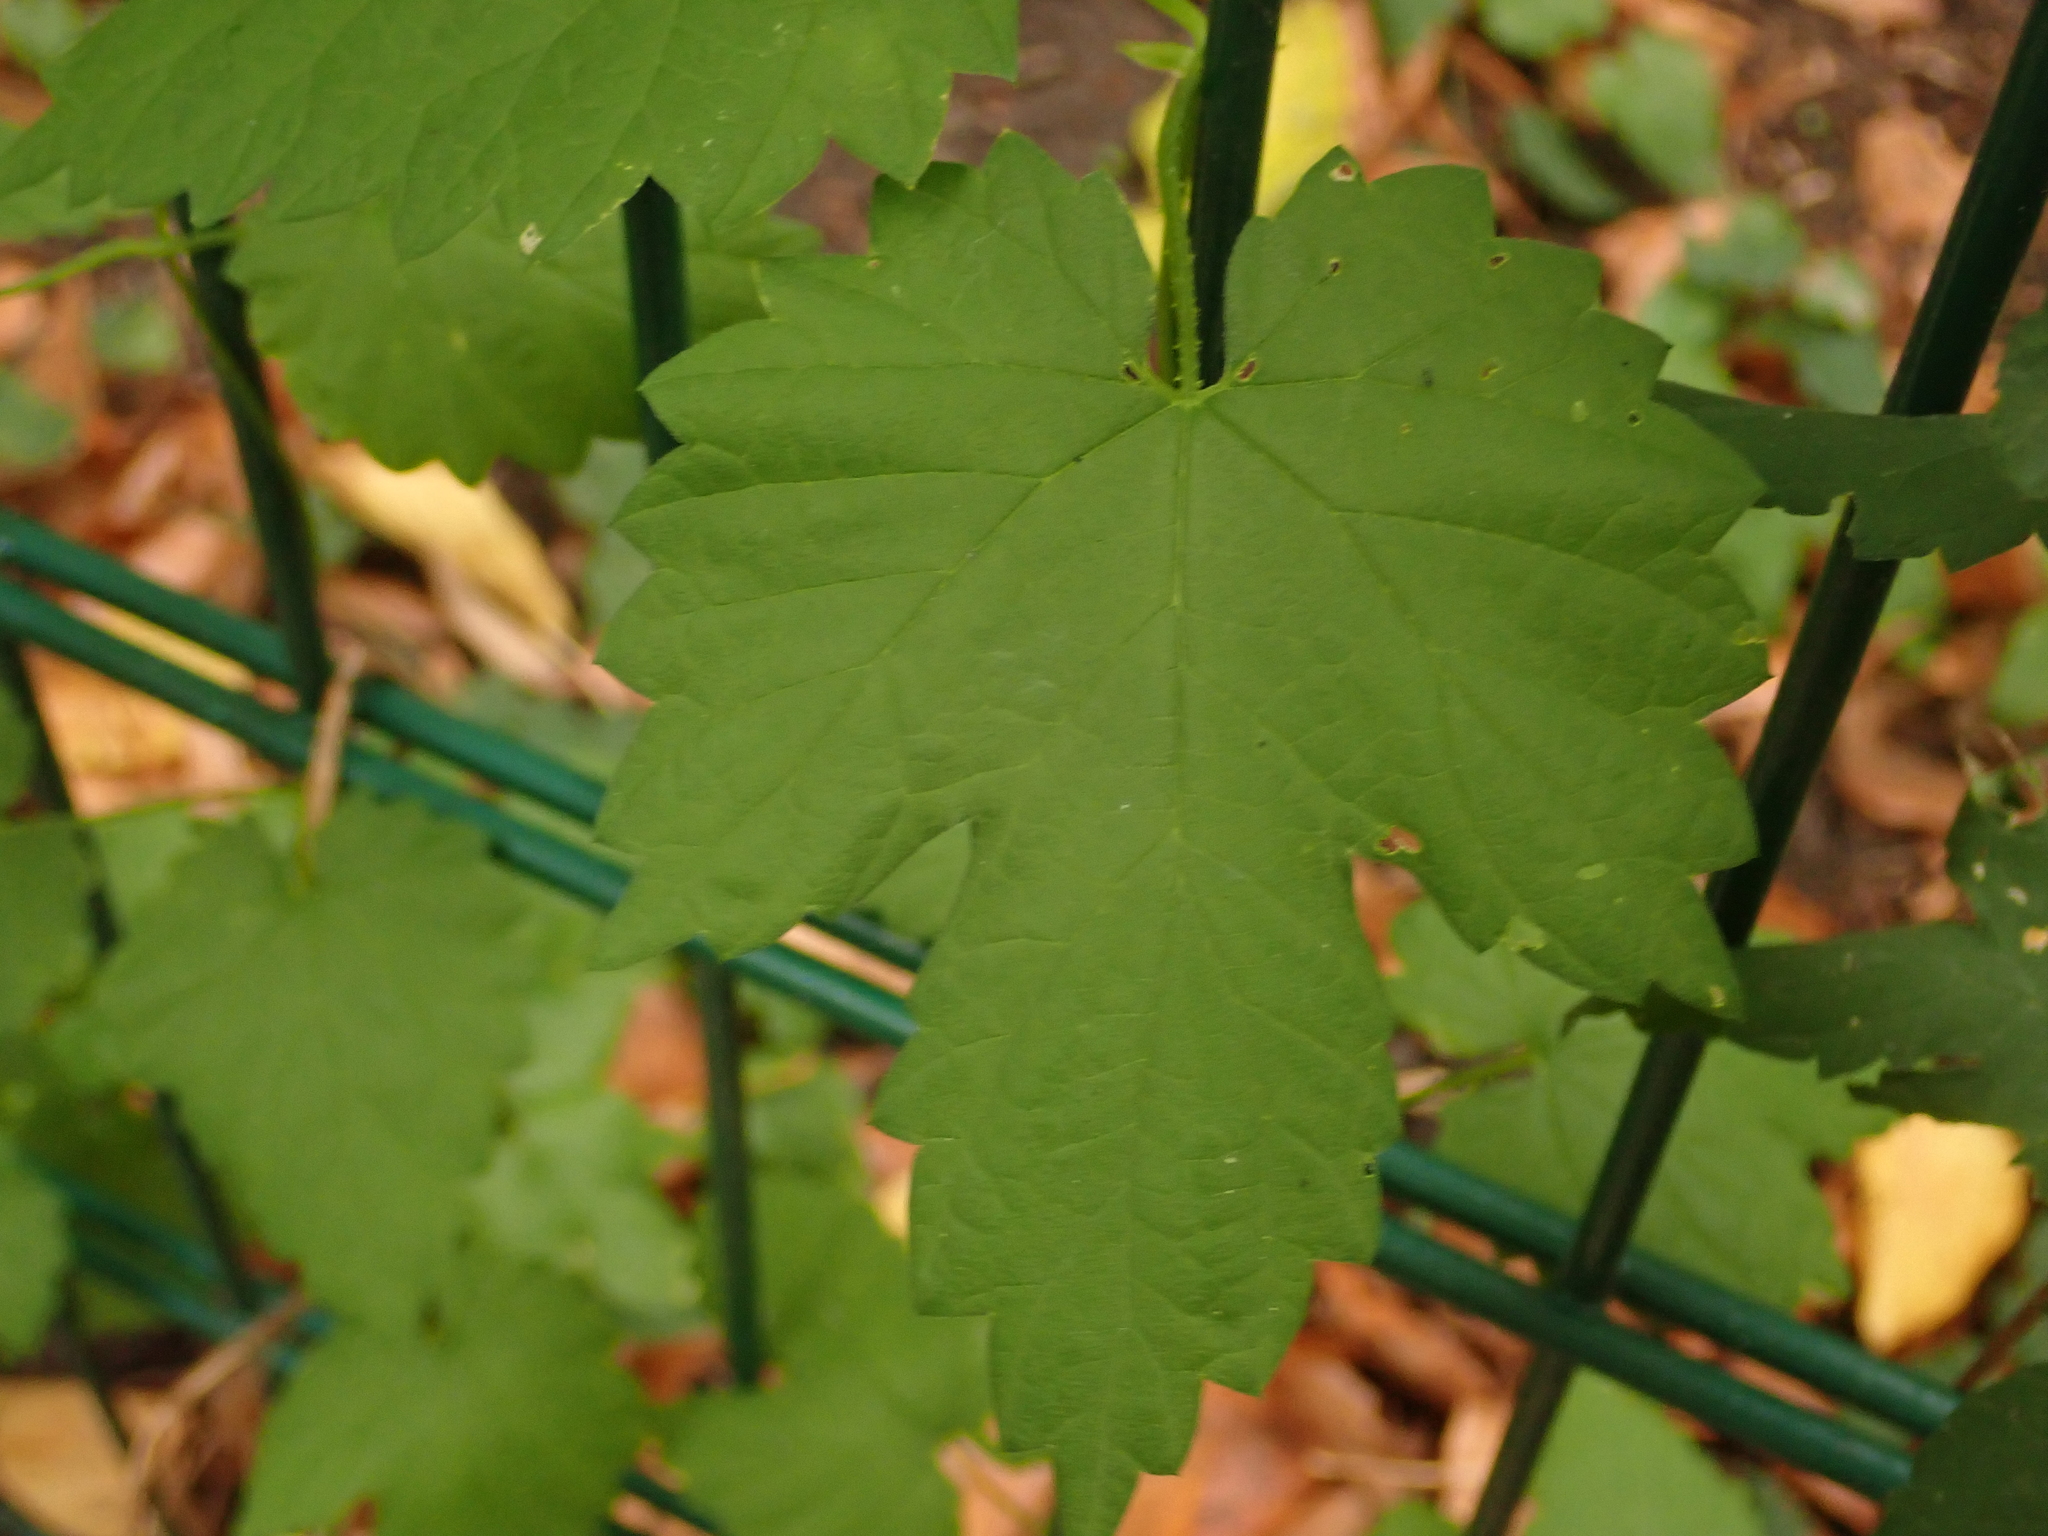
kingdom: Plantae
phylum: Tracheophyta
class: Magnoliopsida
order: Rosales
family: Cannabaceae
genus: Humulus
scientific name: Humulus lupulus
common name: Hop
